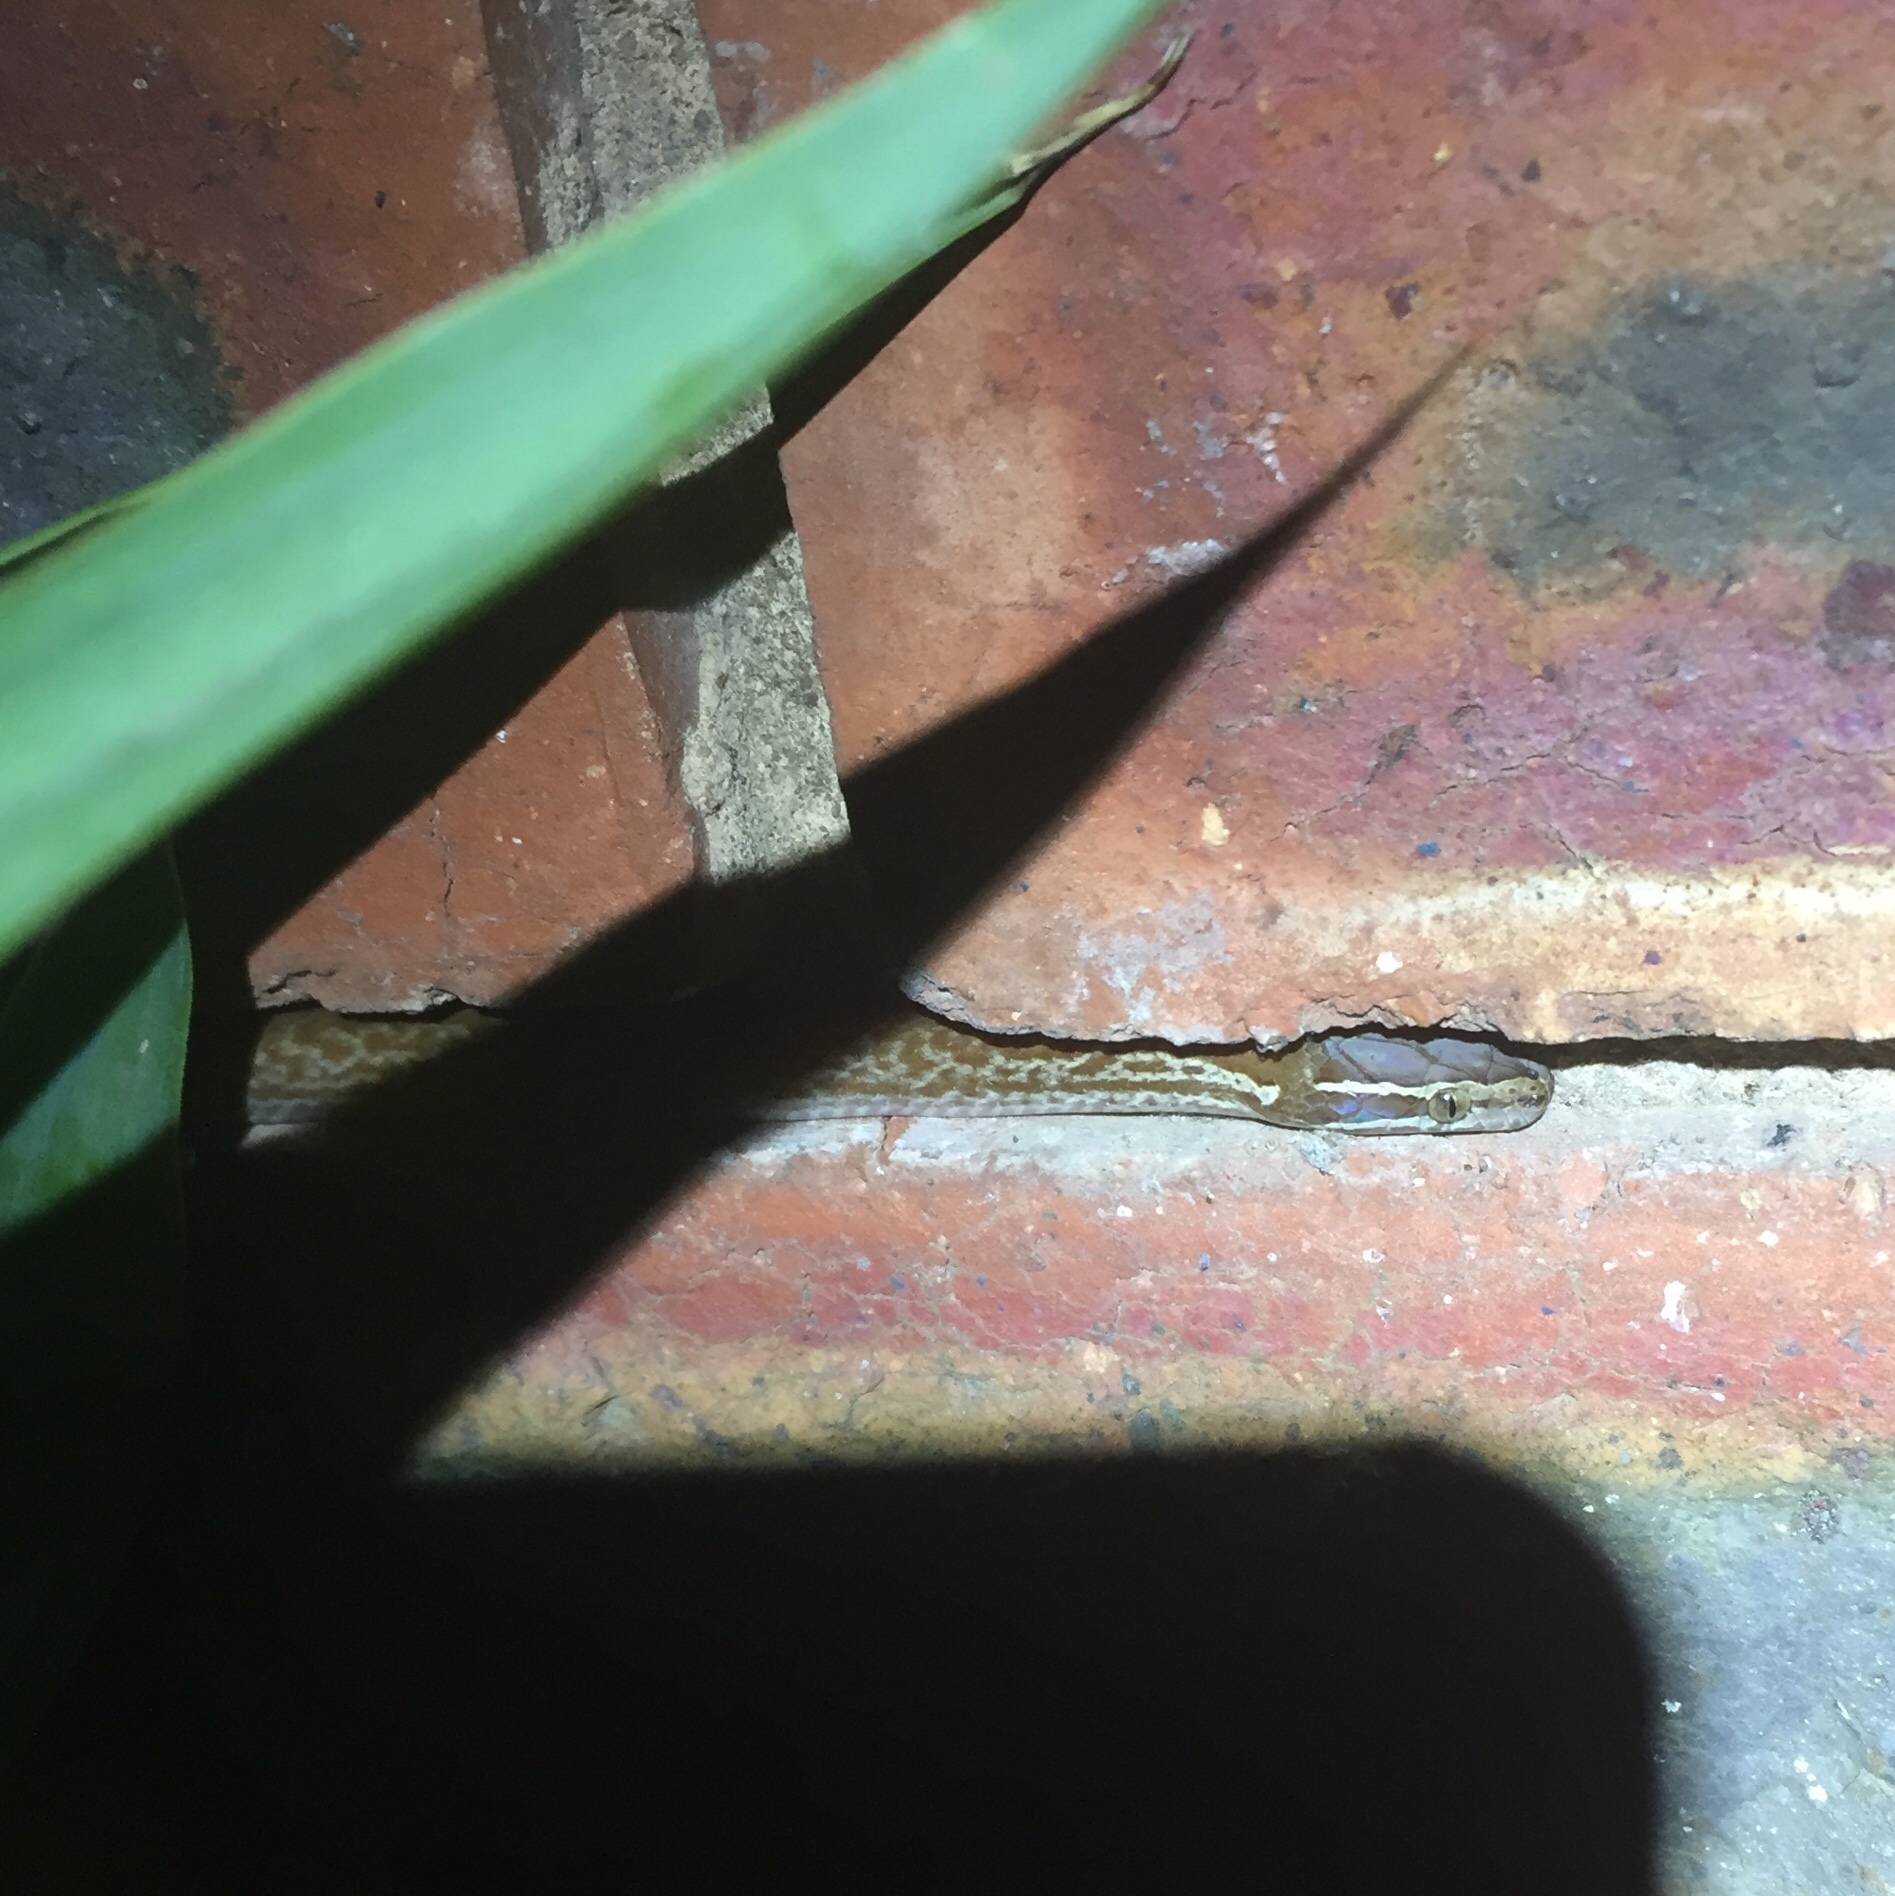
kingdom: Animalia
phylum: Chordata
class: Squamata
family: Lamprophiidae
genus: Boaedon
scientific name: Boaedon capensis
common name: Brown house snake
